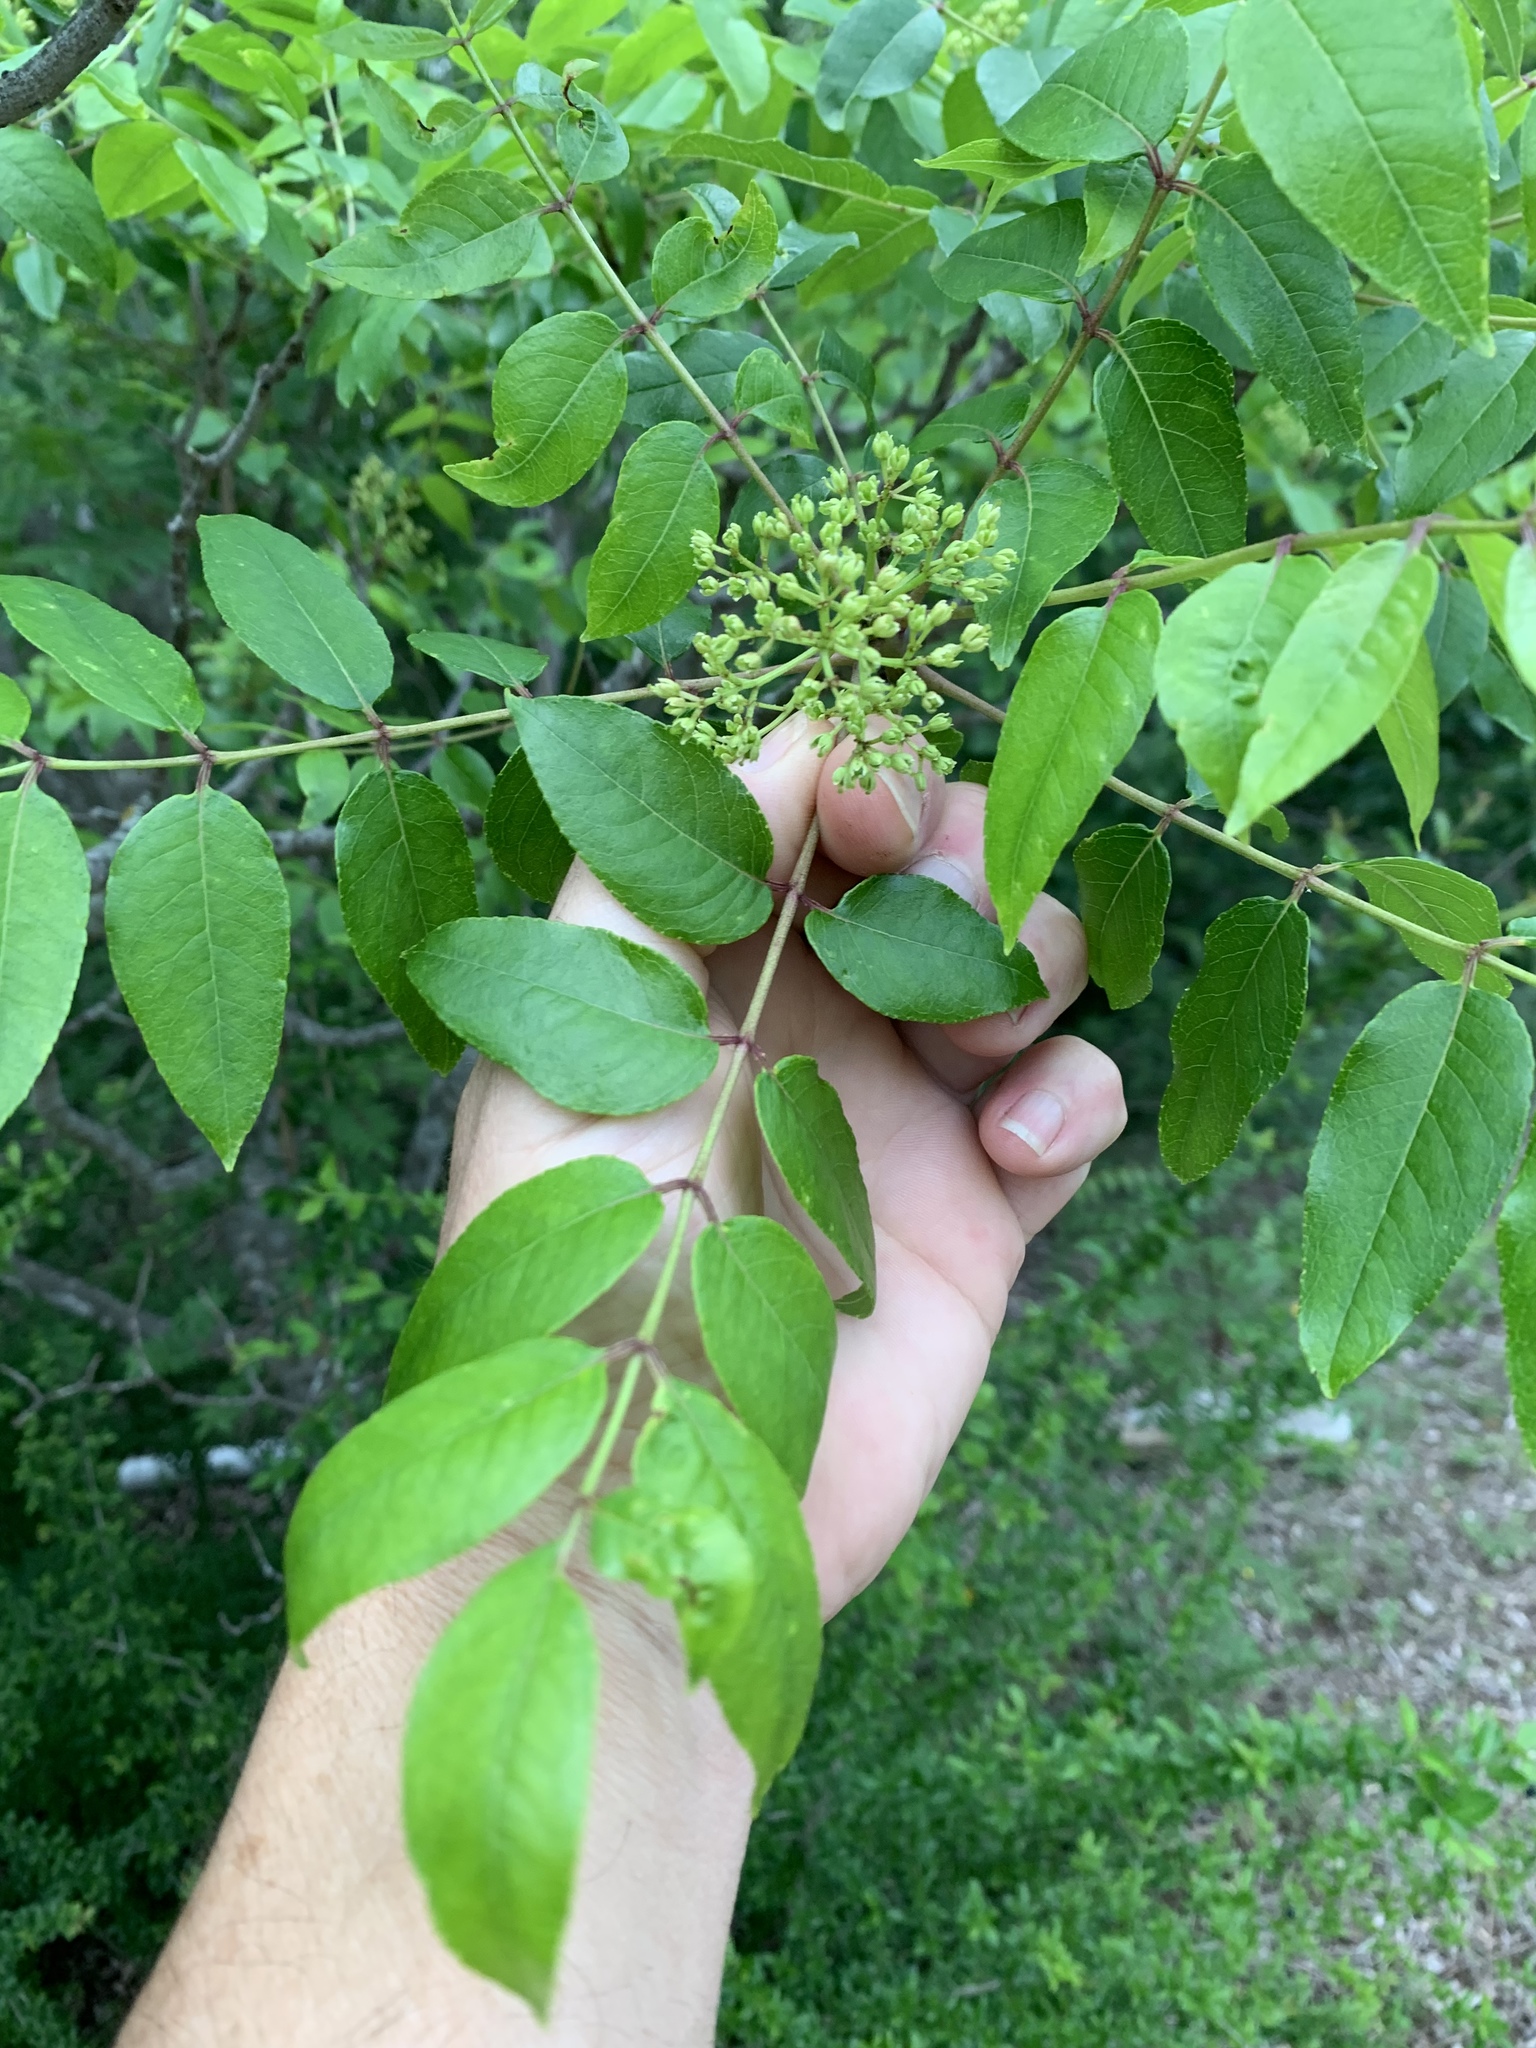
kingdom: Plantae
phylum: Tracheophyta
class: Magnoliopsida
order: Sapindales
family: Rutaceae
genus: Zanthoxylum
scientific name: Zanthoxylum clava-herculis
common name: Hercules'-club
